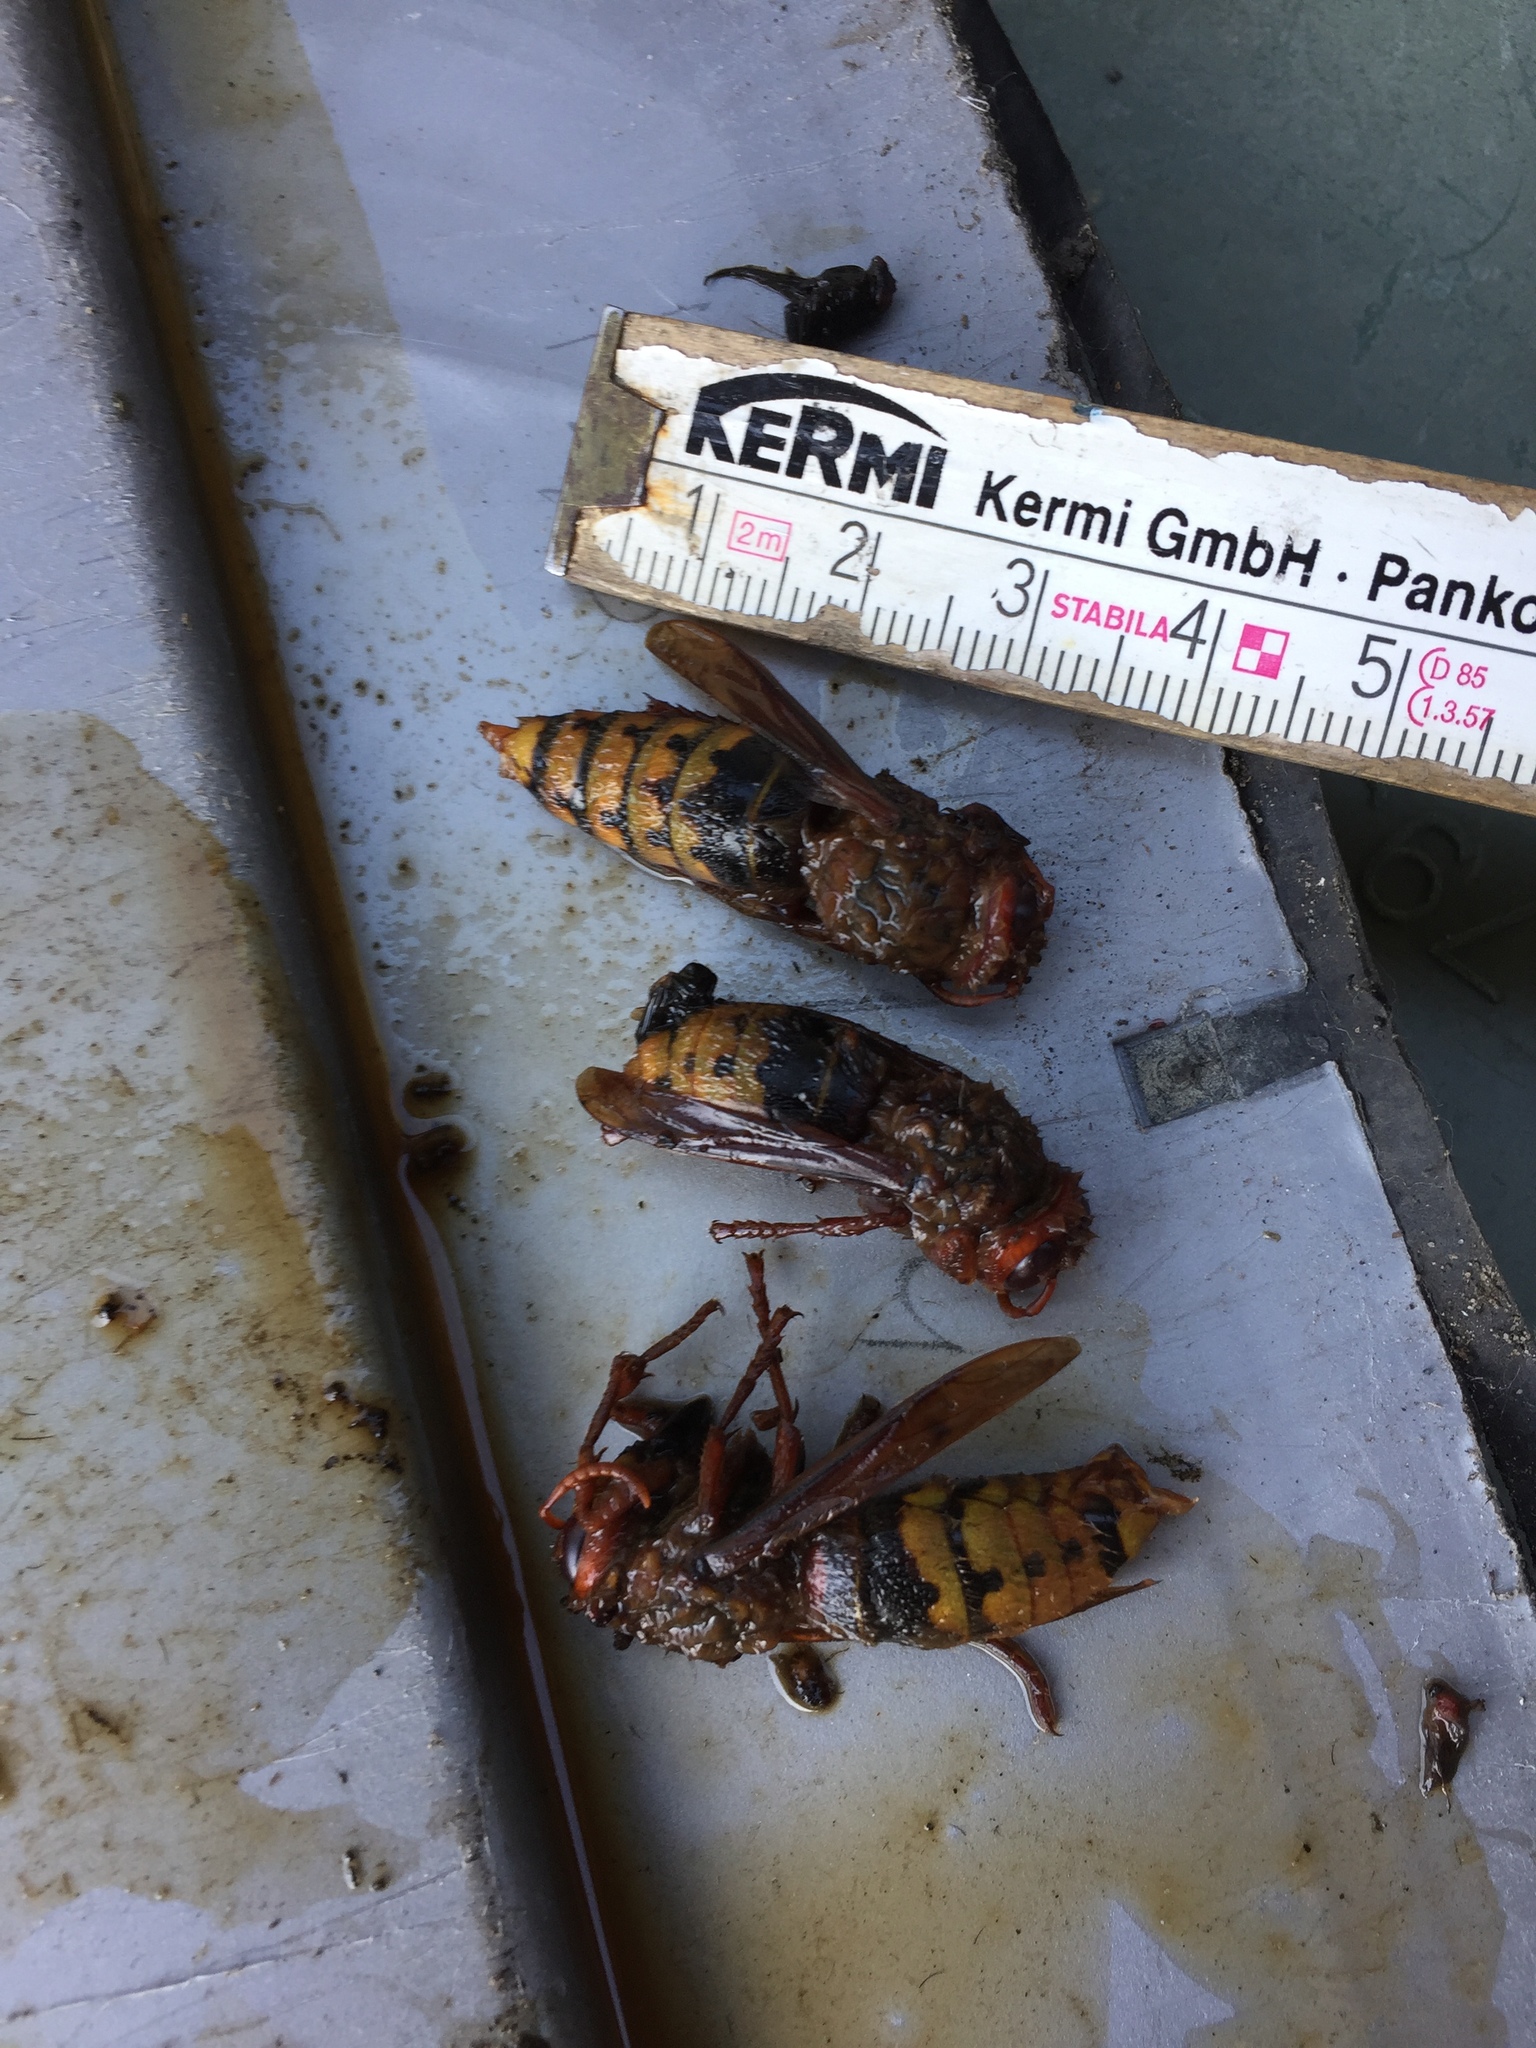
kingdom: Animalia
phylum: Arthropoda
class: Insecta
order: Hymenoptera
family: Vespidae
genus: Vespa
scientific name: Vespa crabro
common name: Hornet
